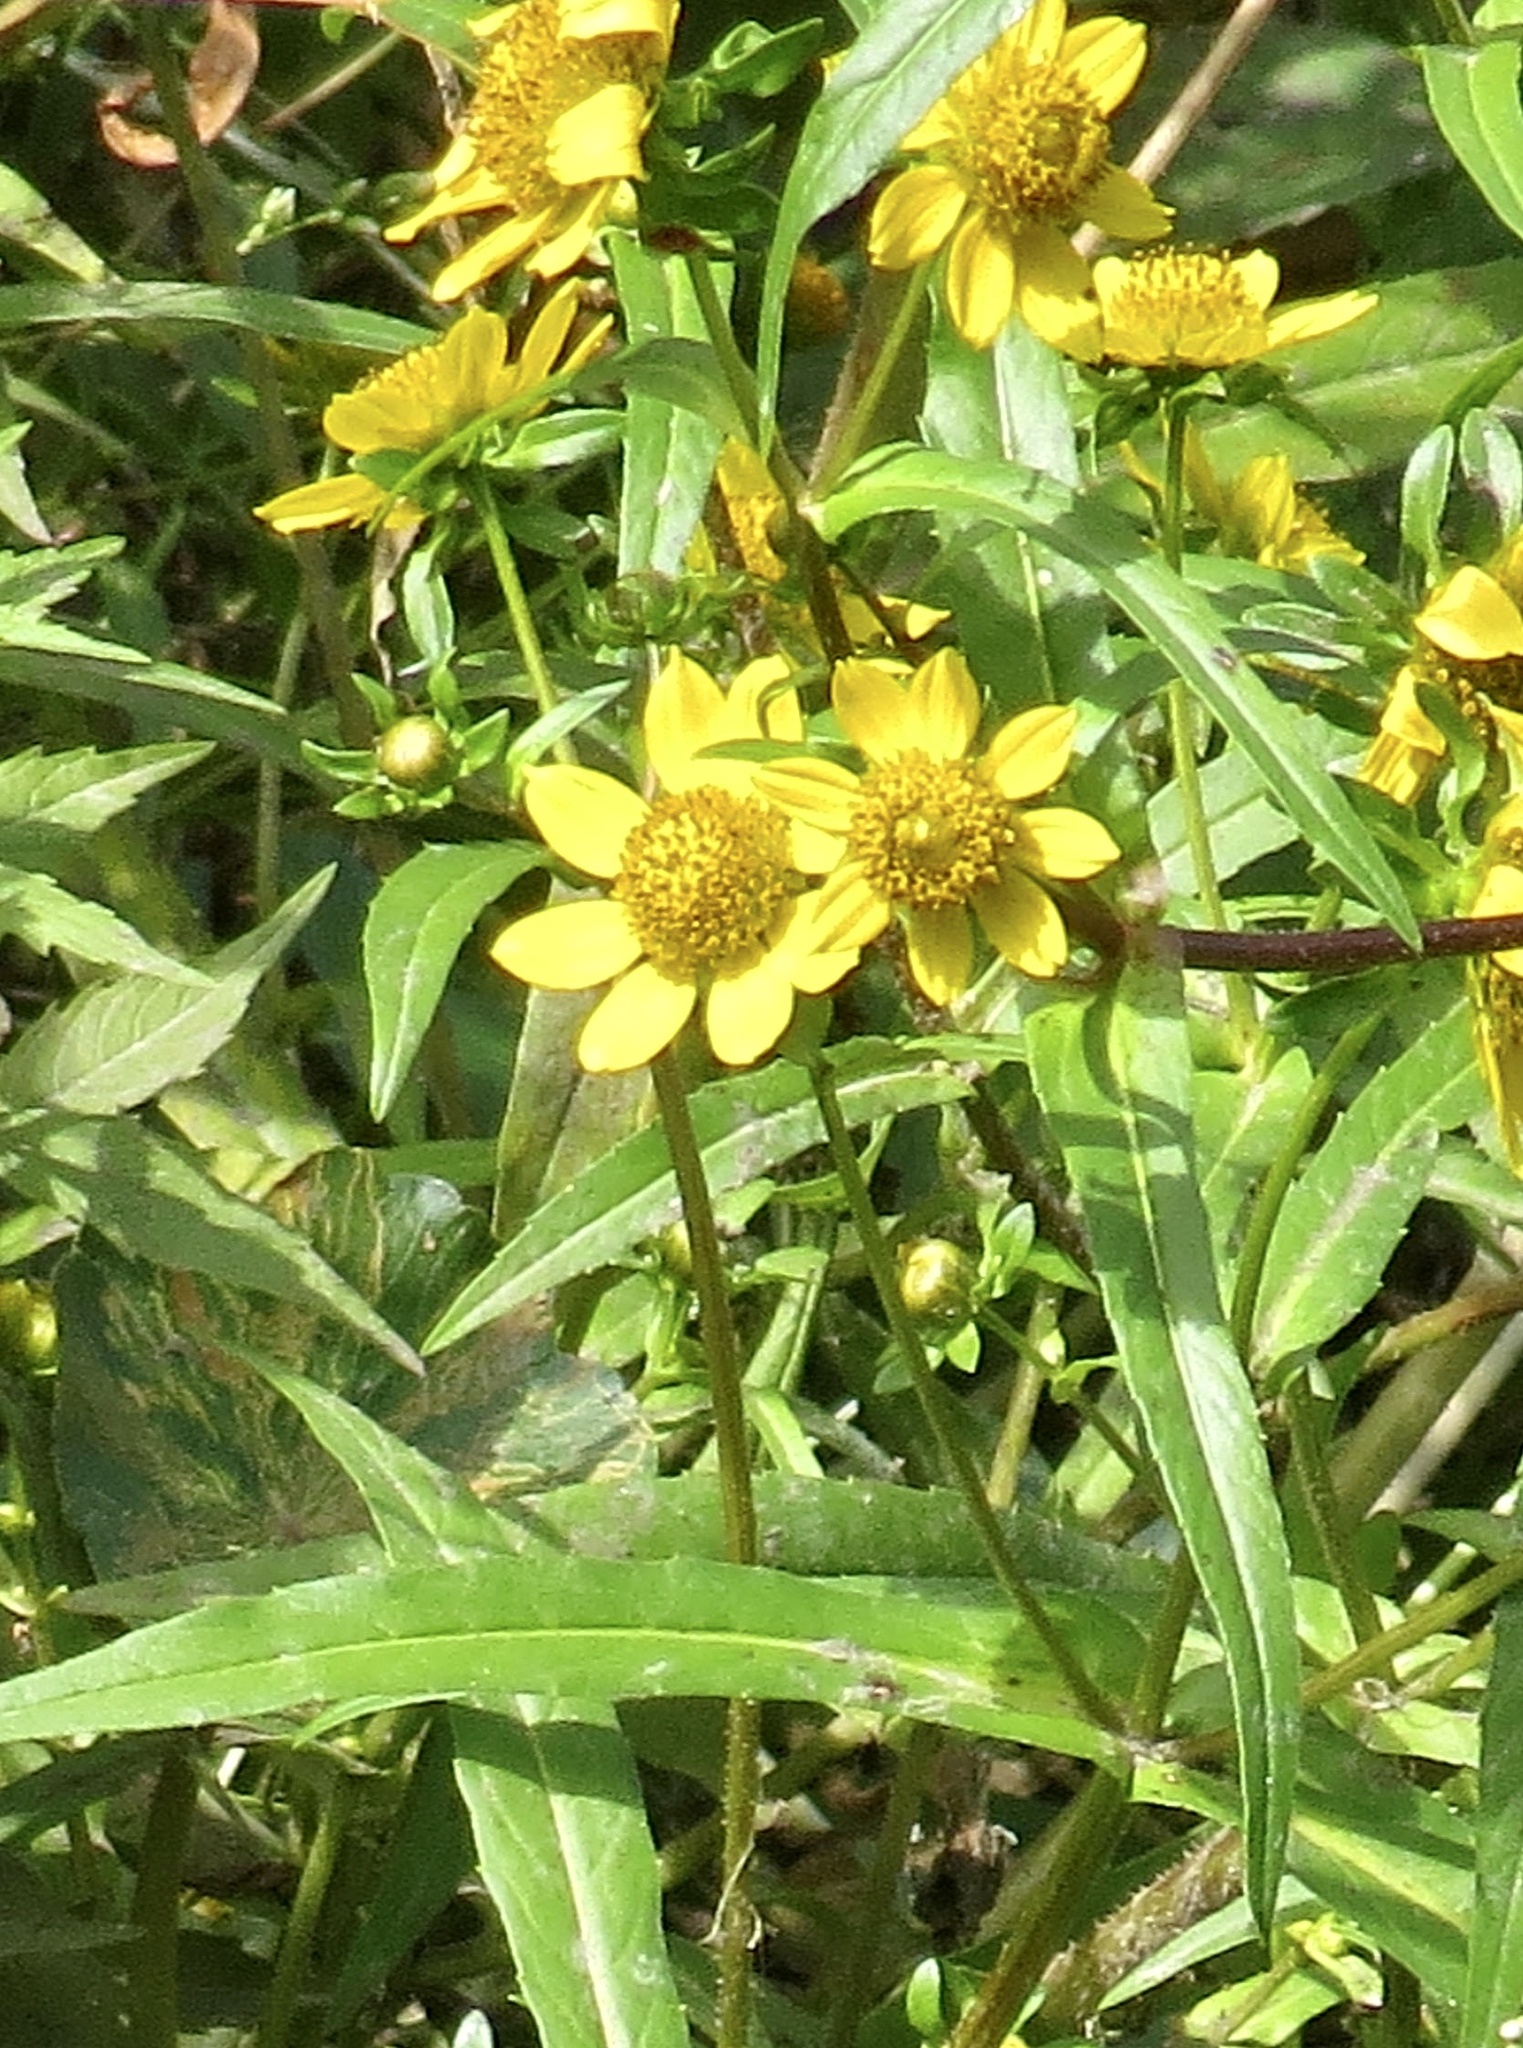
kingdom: Plantae
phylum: Tracheophyta
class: Magnoliopsida
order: Asterales
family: Asteraceae
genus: Bidens
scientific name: Bidens cernua
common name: Nodding bur-marigold
